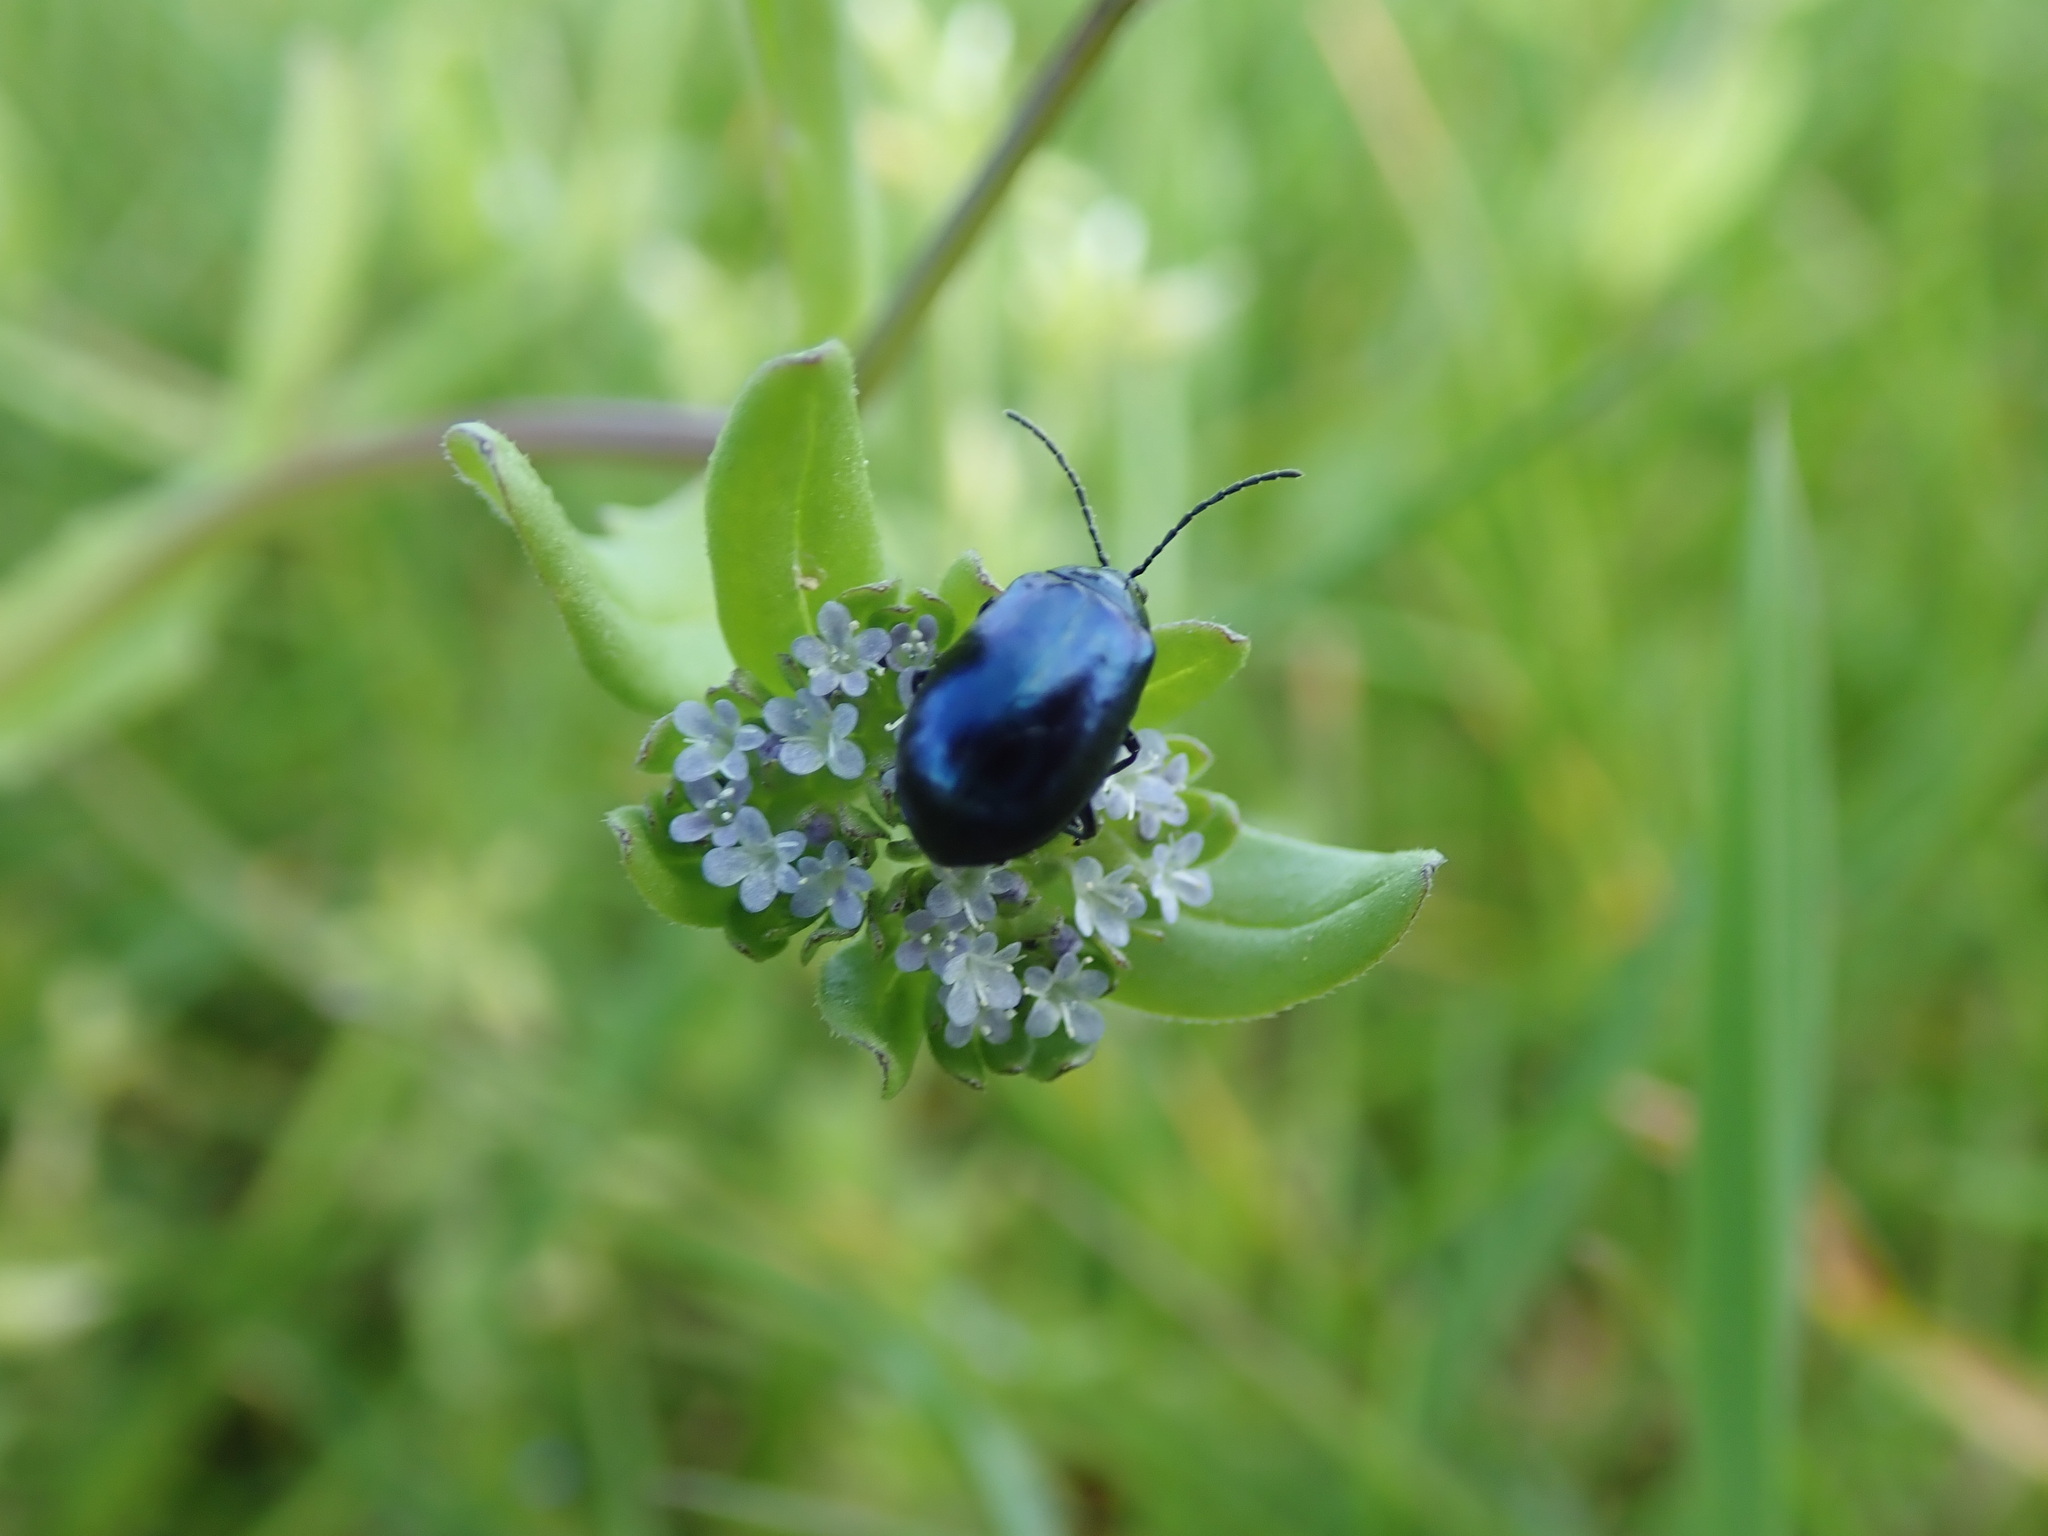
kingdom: Animalia
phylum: Arthropoda
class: Insecta
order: Coleoptera
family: Chrysomelidae
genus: Agelastica
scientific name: Agelastica alni
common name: Alder leaf beetle
